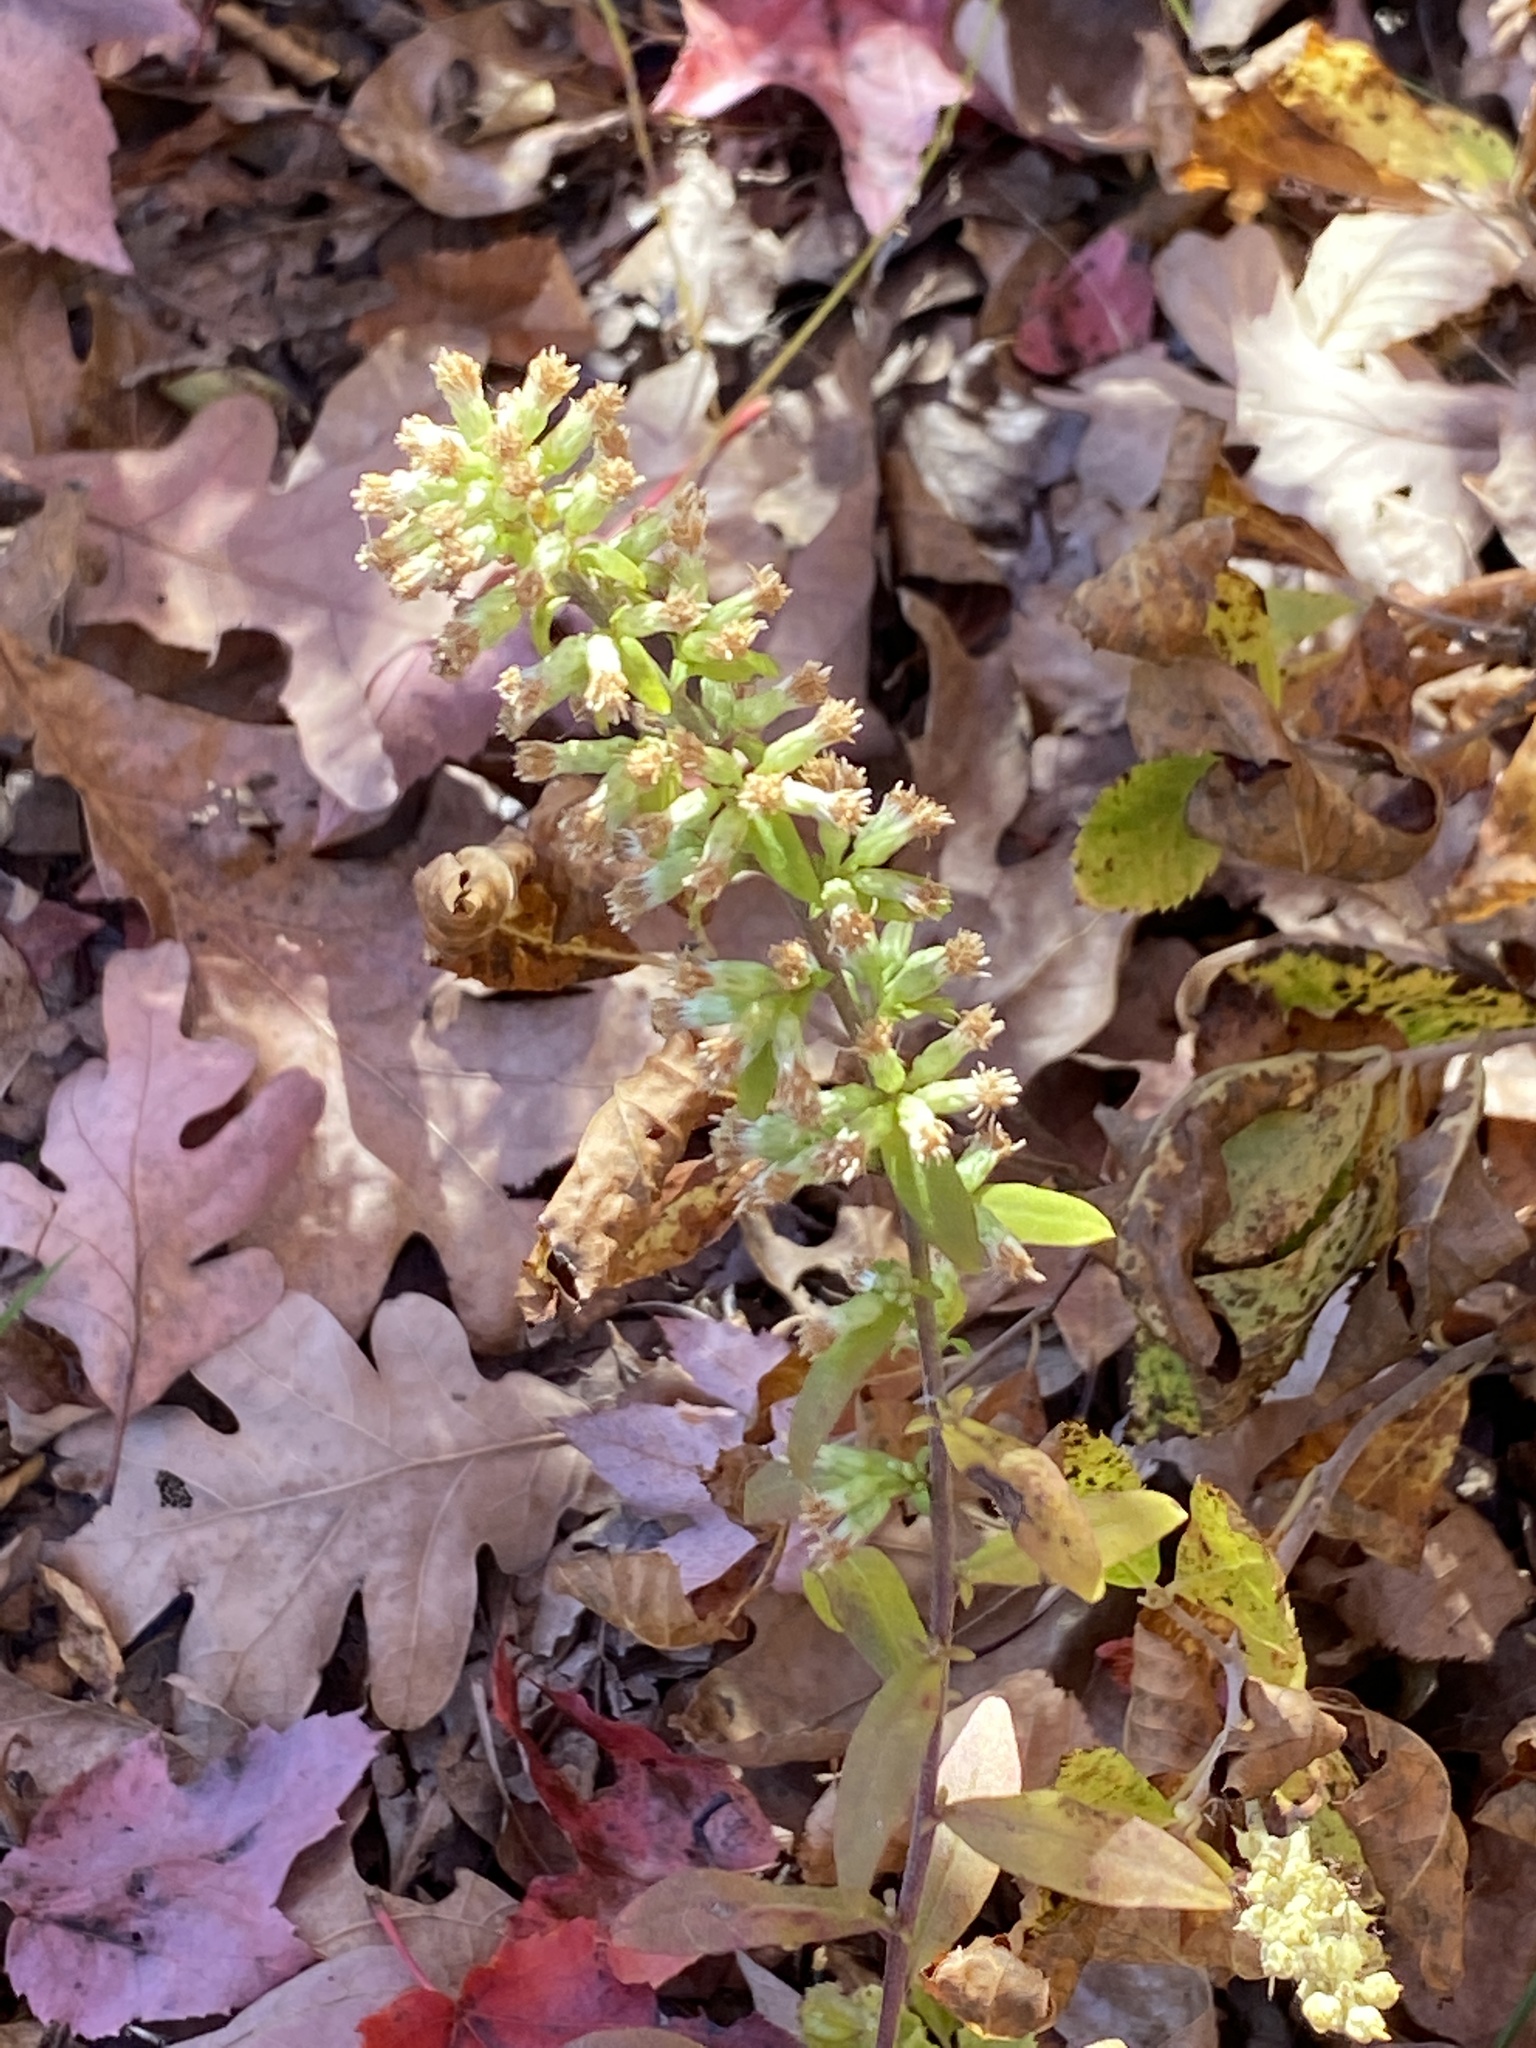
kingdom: Plantae
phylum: Tracheophyta
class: Magnoliopsida
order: Asterales
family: Asteraceae
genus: Solidago
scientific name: Solidago bicolor
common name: Silverrod
